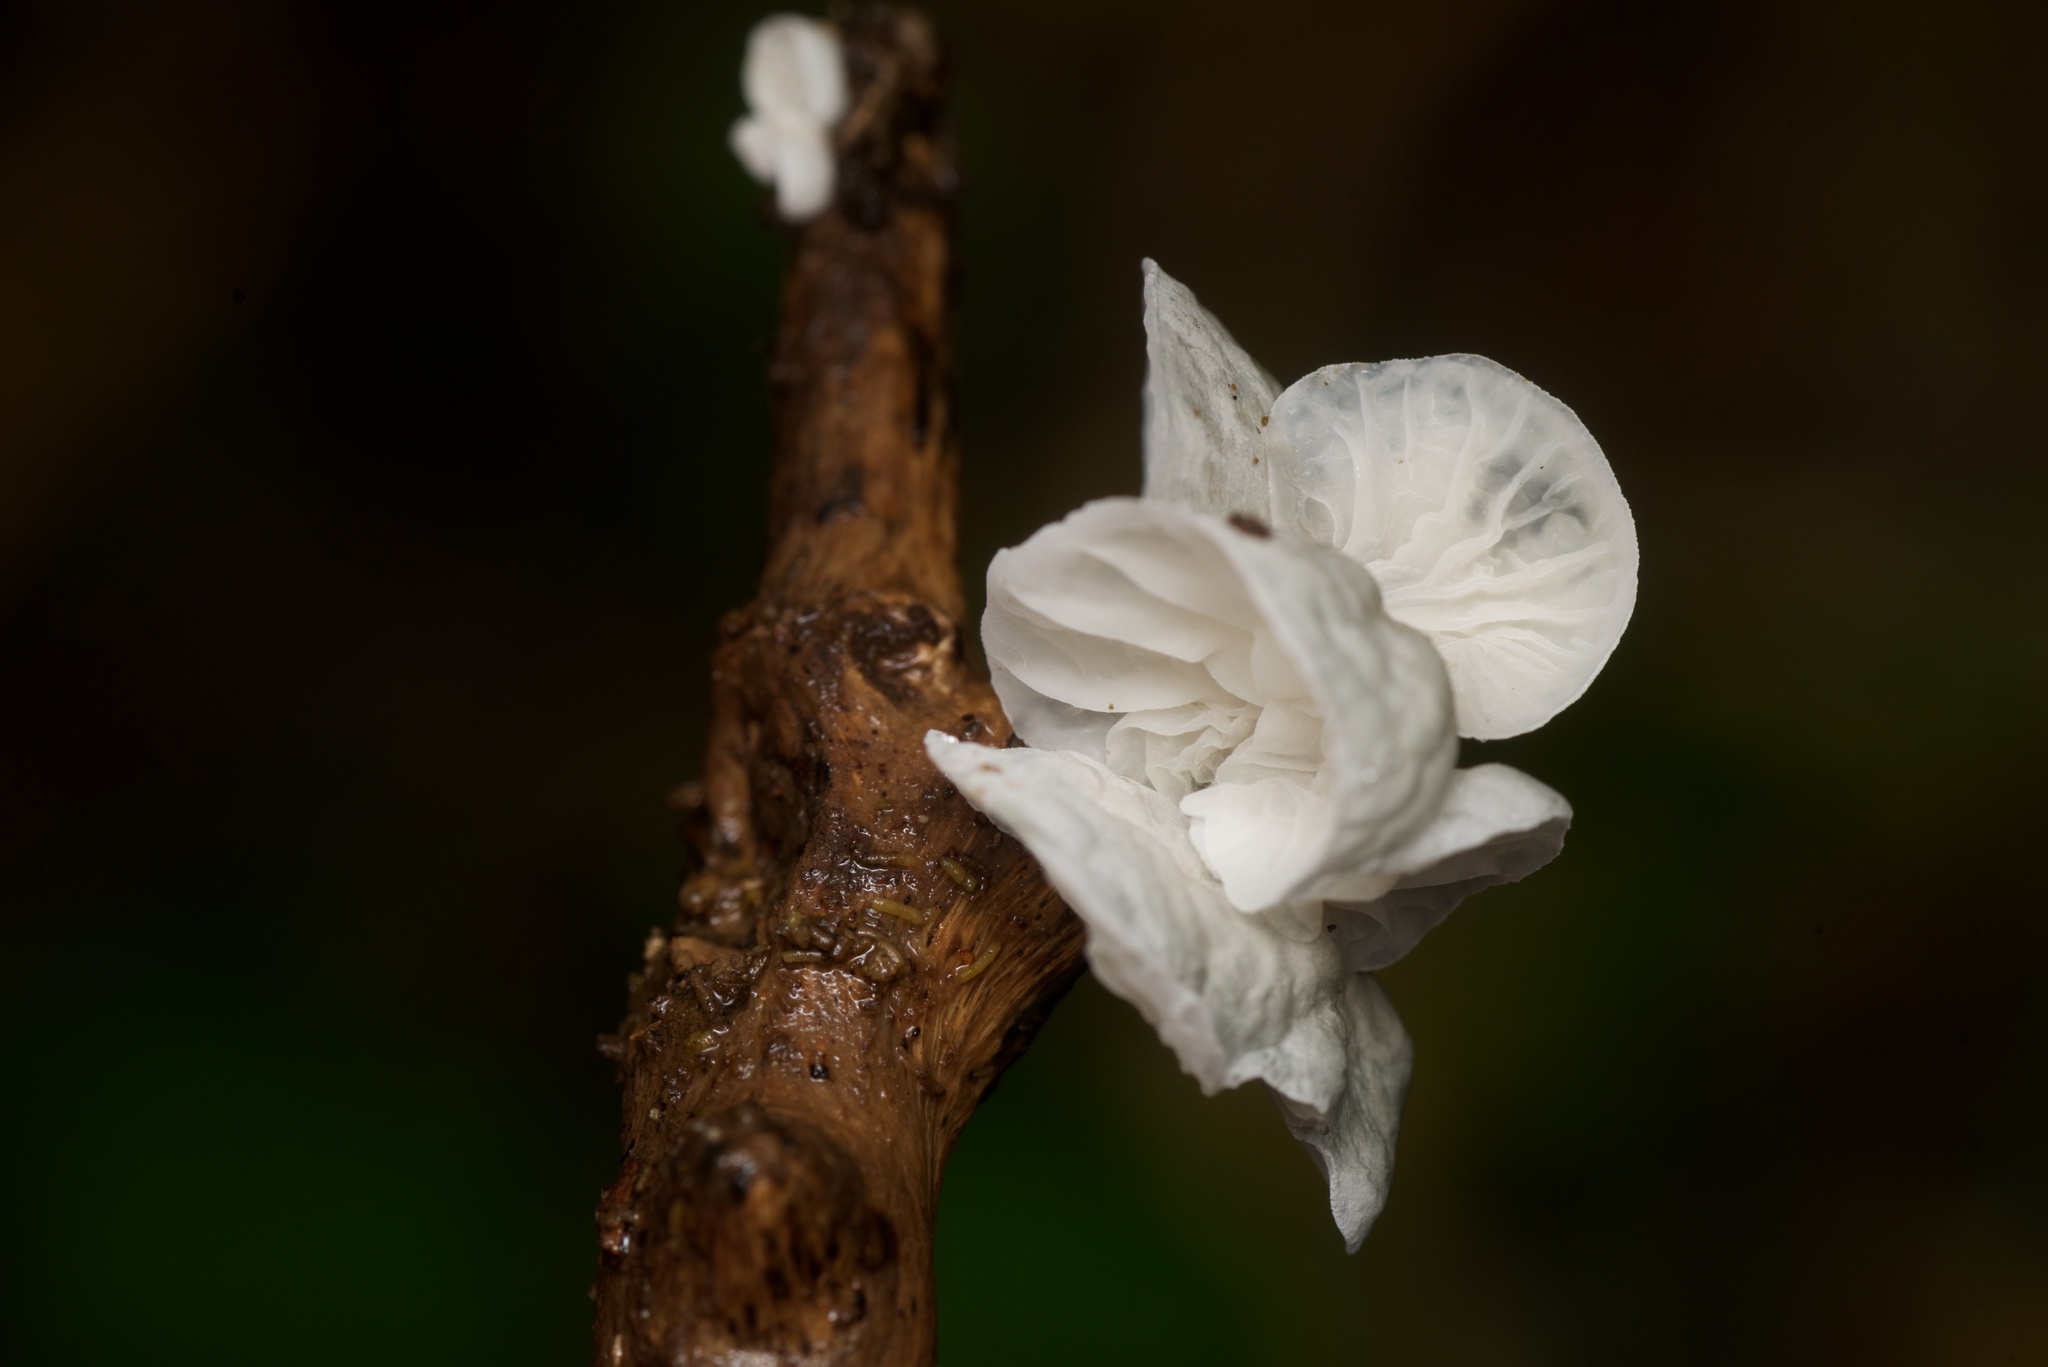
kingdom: Fungi
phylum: Basidiomycota
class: Agaricomycetes
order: Agaricales
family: Marasmiaceae
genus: Campanella
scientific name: Campanella tristis
